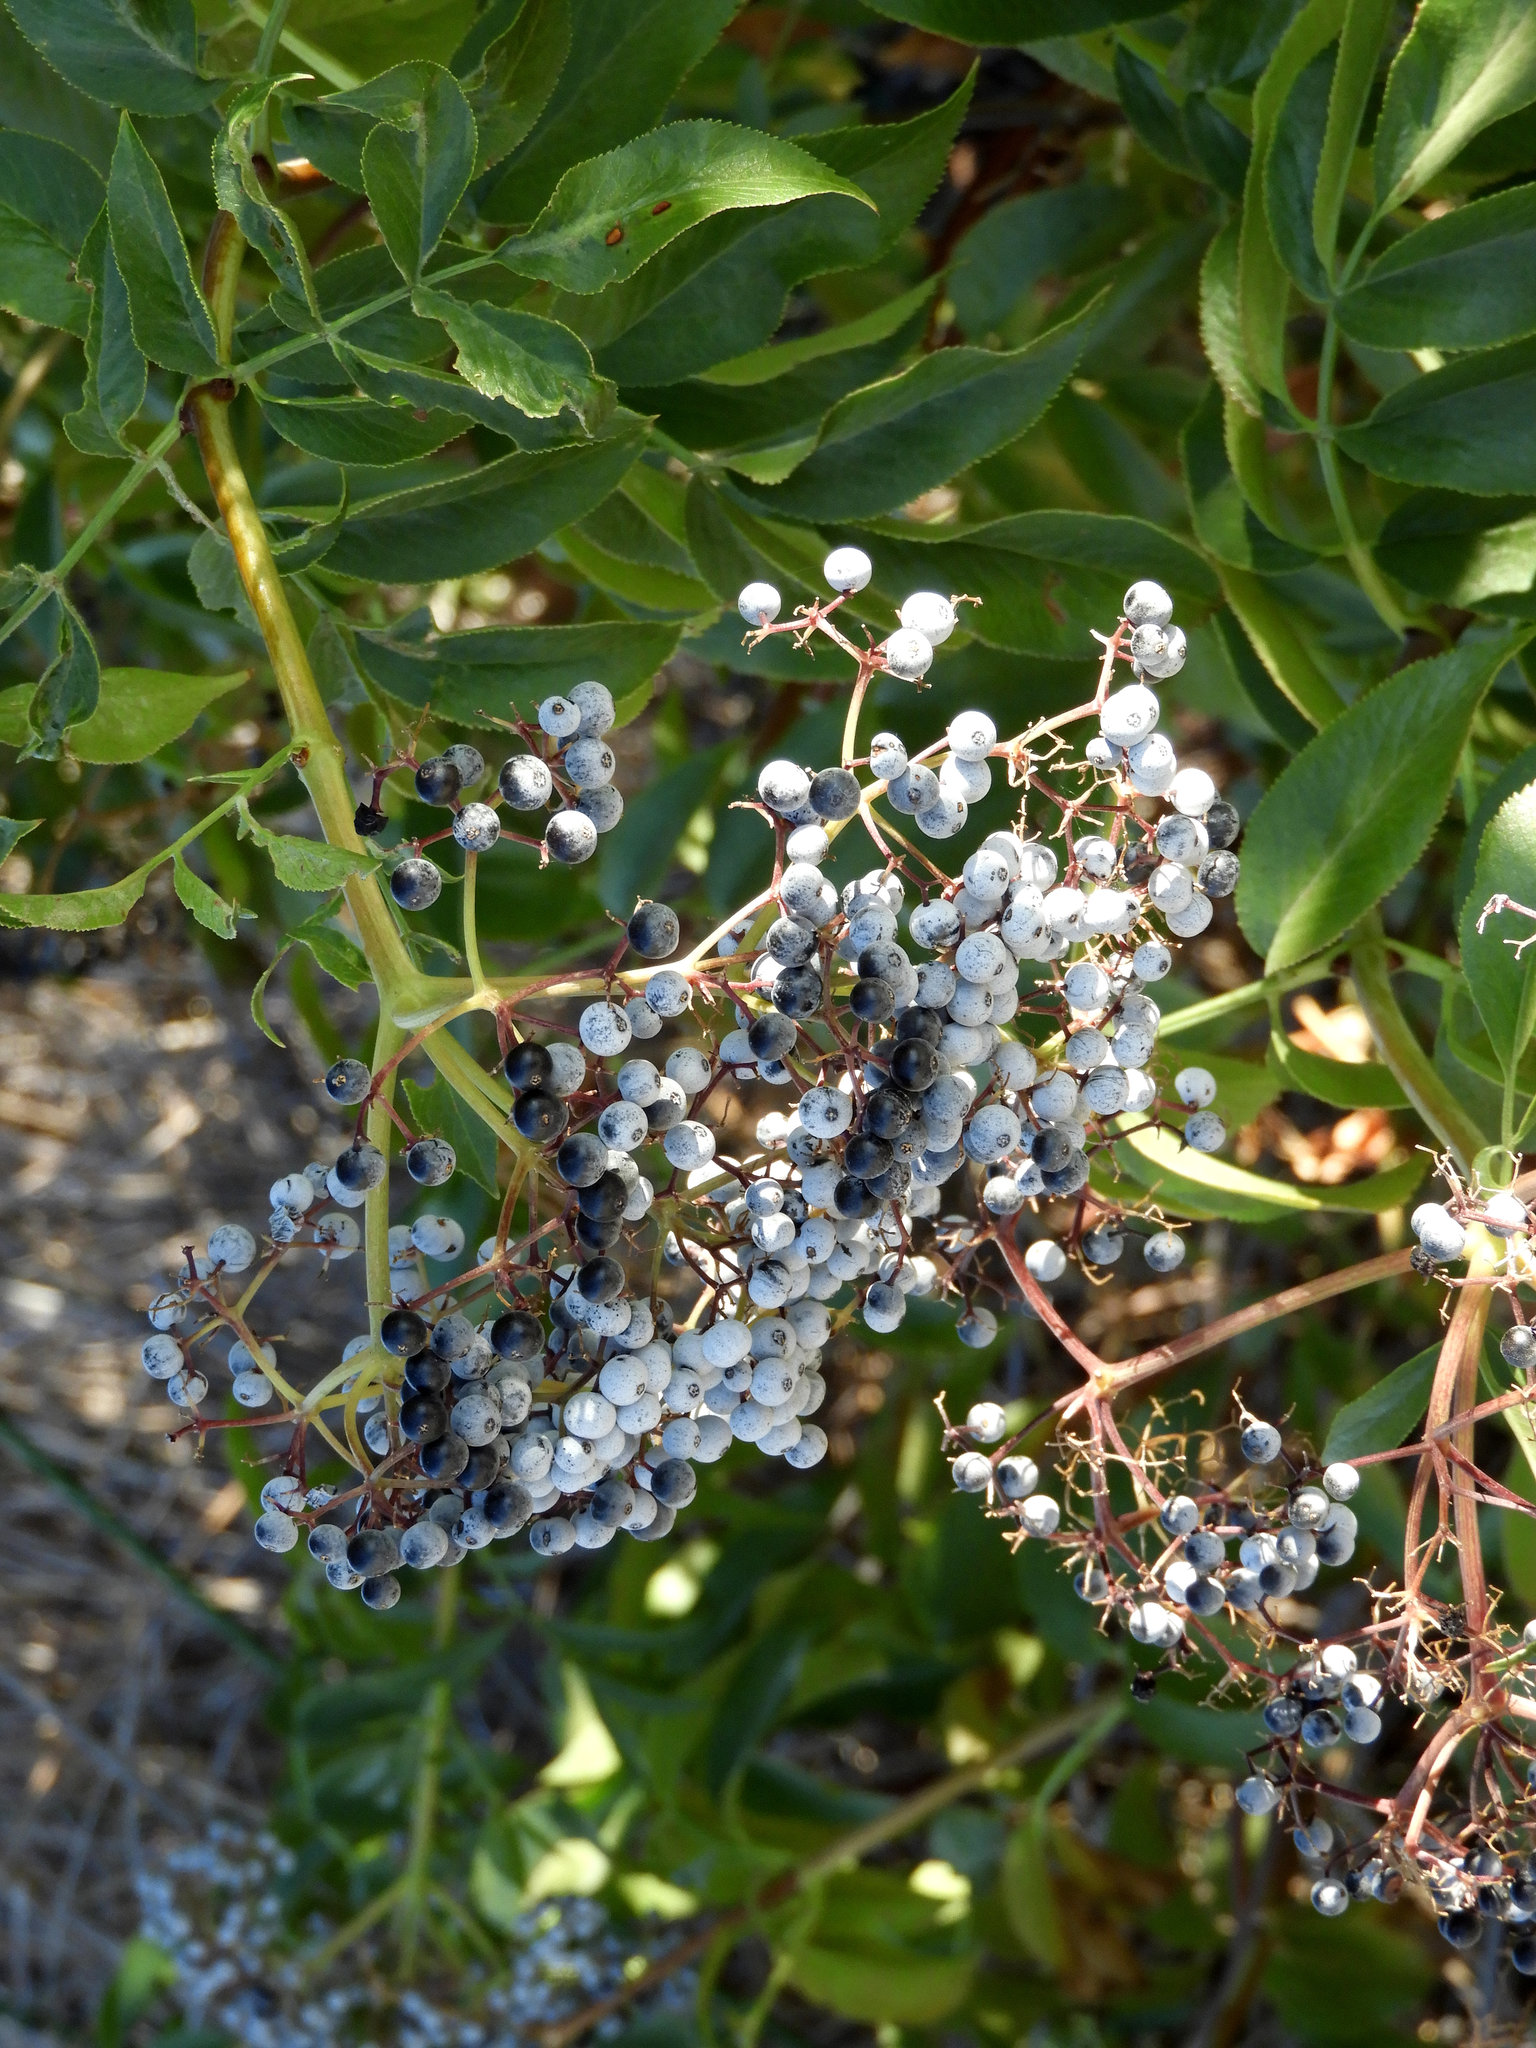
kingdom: Plantae
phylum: Tracheophyta
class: Magnoliopsida
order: Dipsacales
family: Viburnaceae
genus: Sambucus
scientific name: Sambucus cerulea
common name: Blue elder
